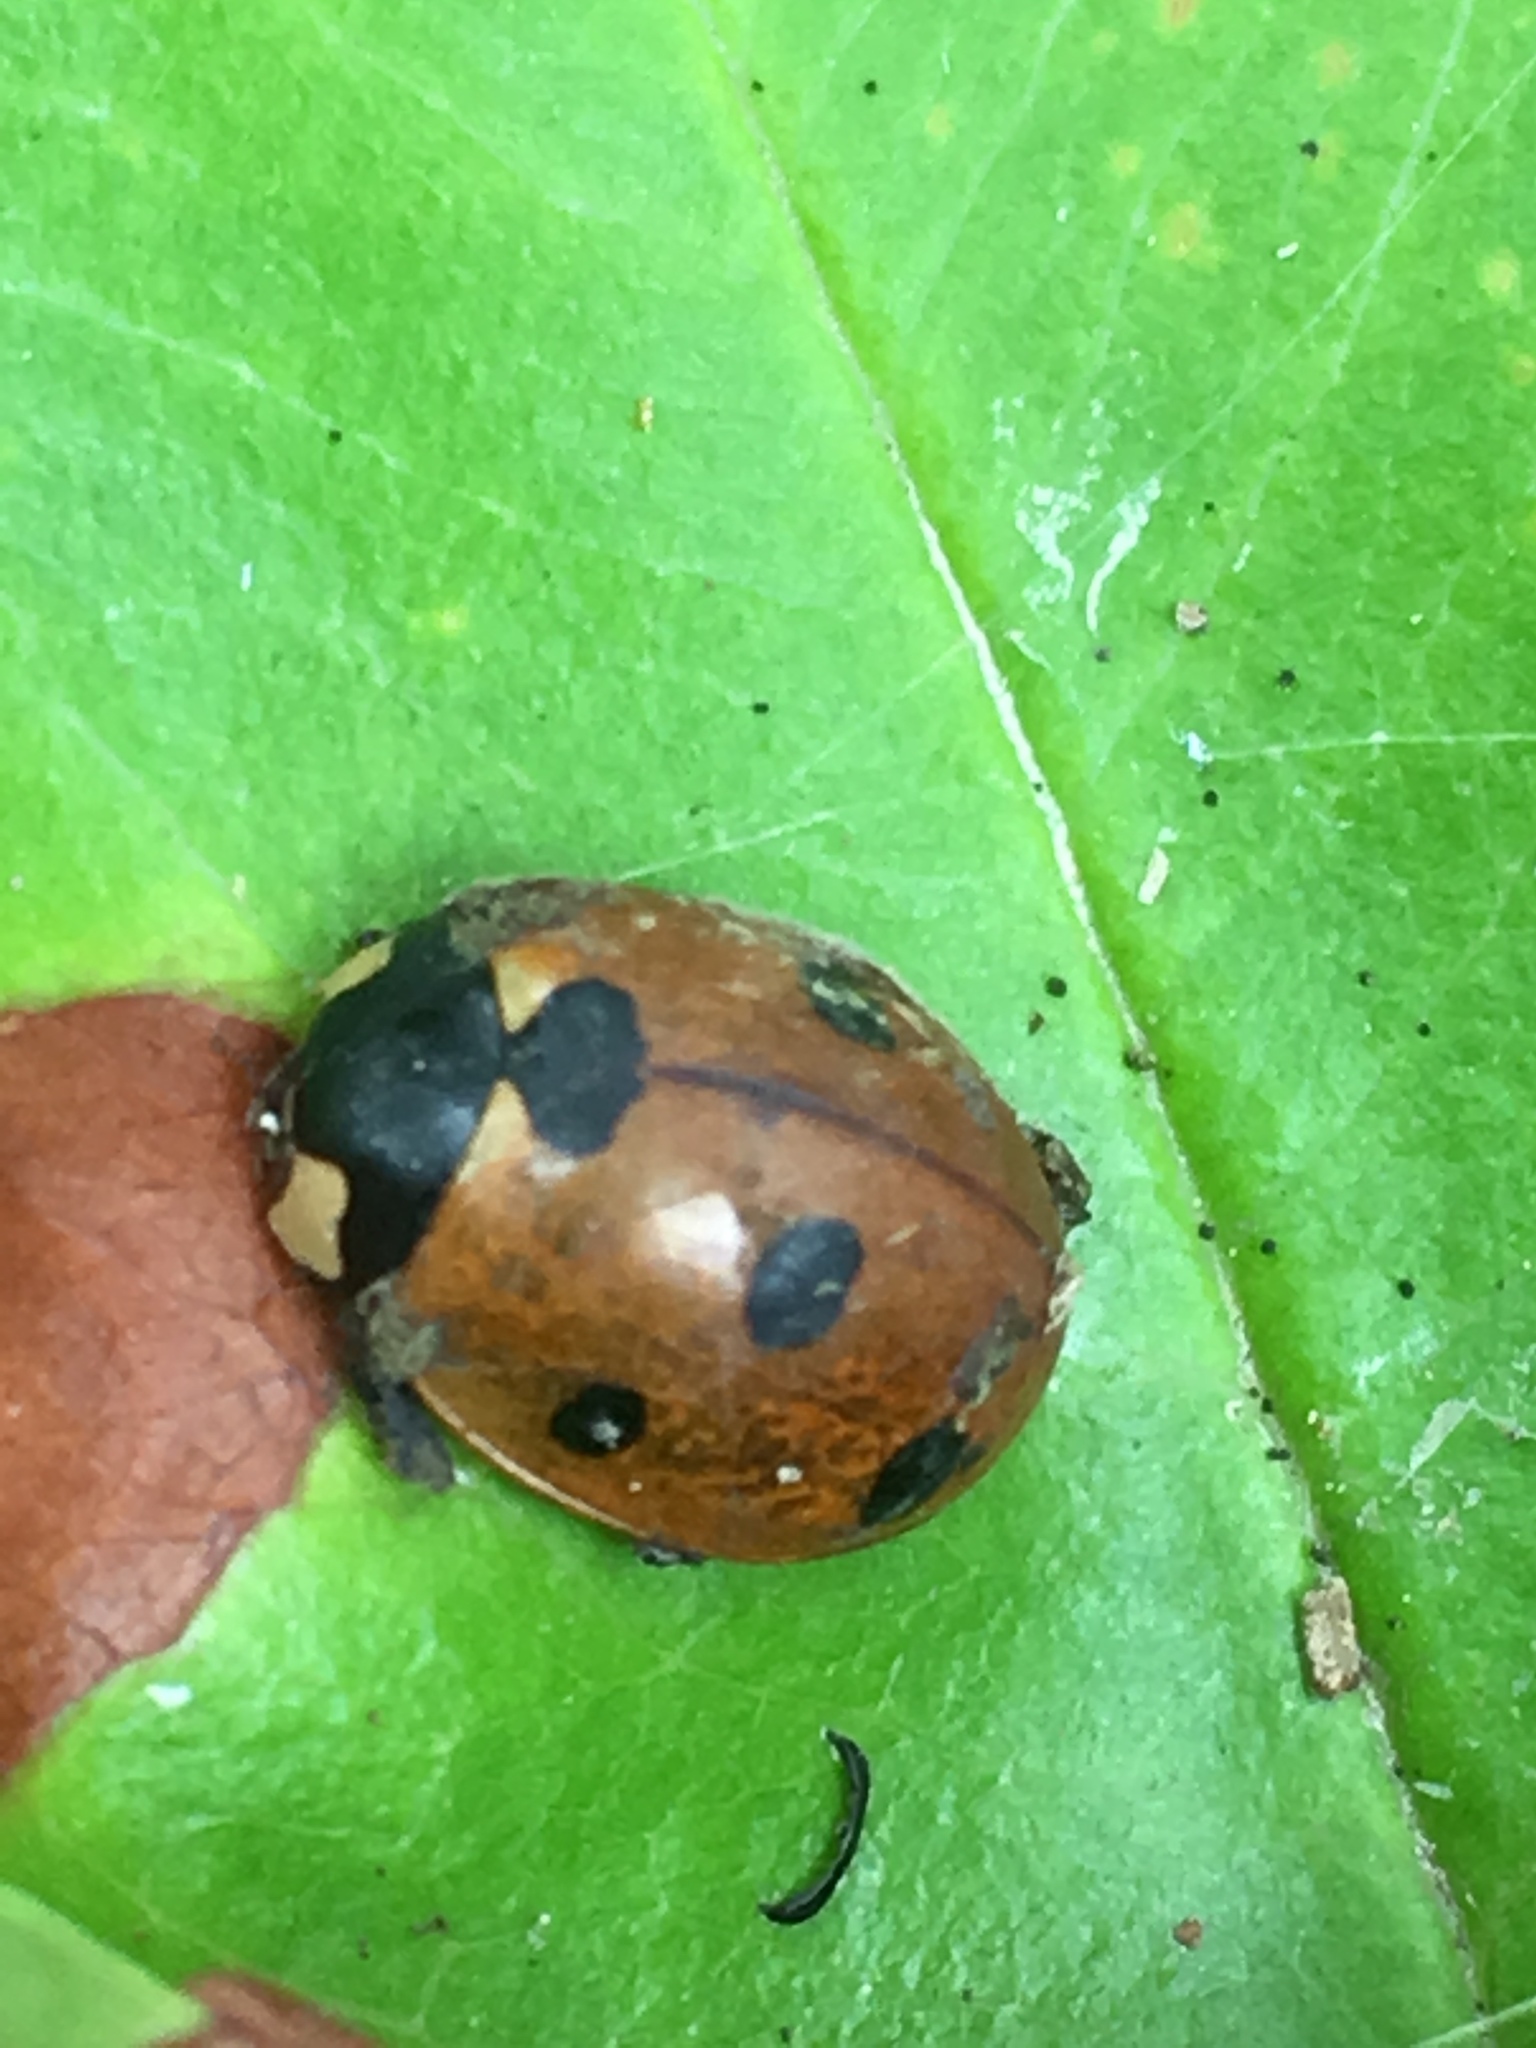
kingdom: Animalia
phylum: Arthropoda
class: Insecta
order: Coleoptera
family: Coccinellidae
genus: Coccinella
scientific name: Coccinella septempunctata
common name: Sevenspotted lady beetle
